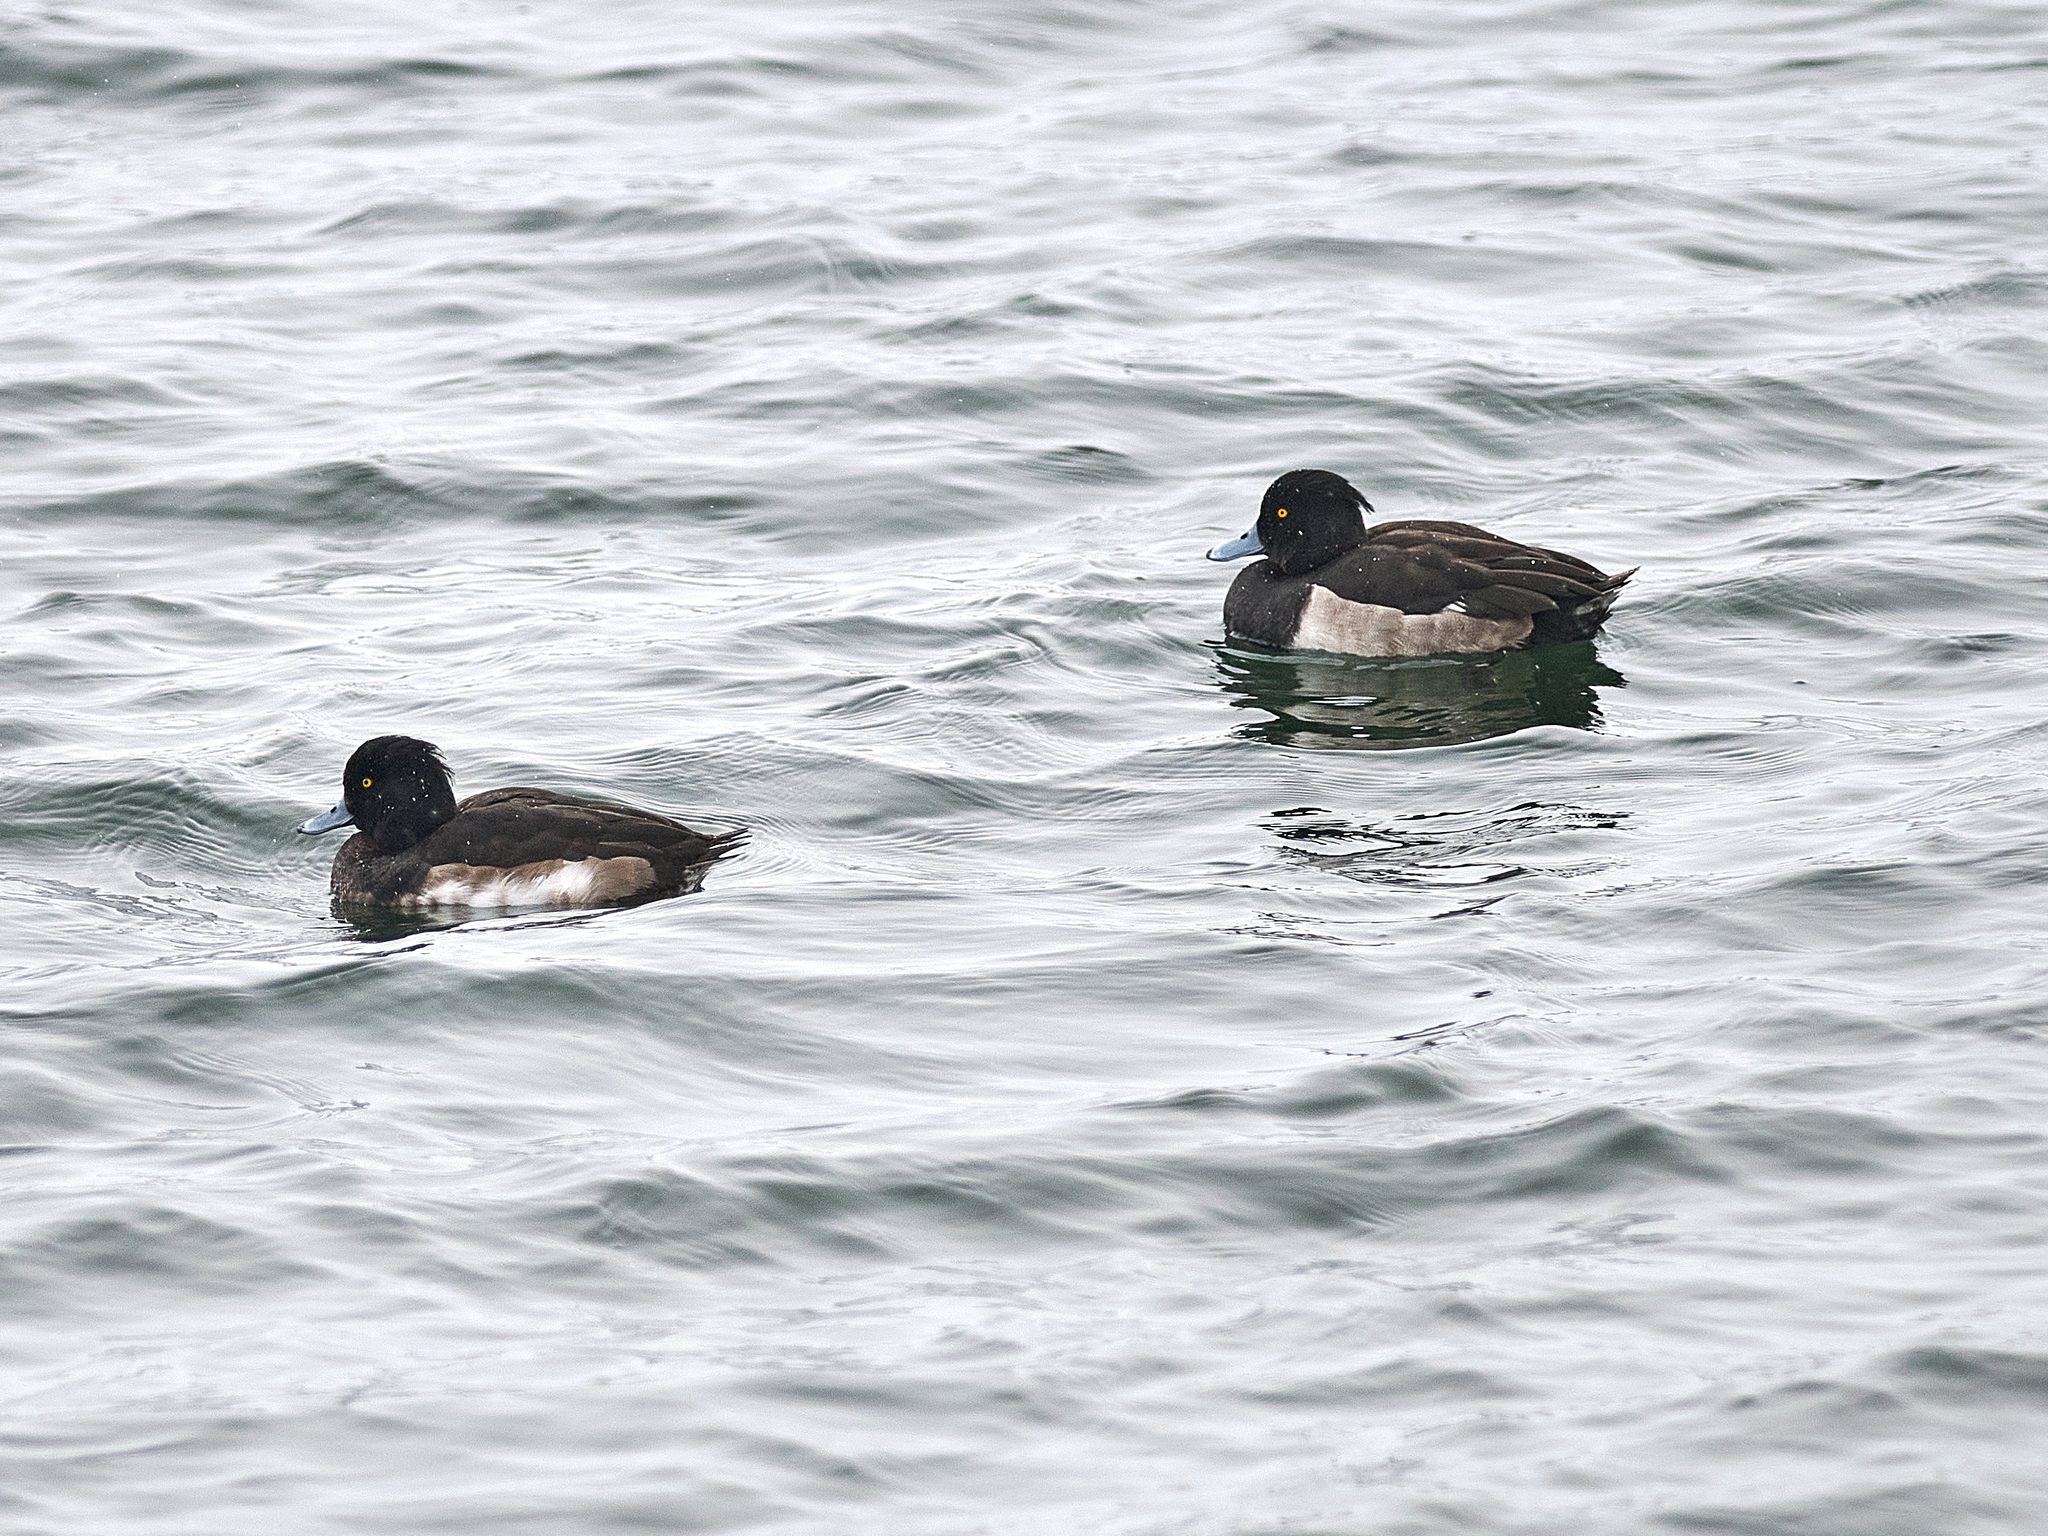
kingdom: Animalia
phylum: Chordata
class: Aves
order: Anseriformes
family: Anatidae
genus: Aythya
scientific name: Aythya fuligula
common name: Tufted duck
